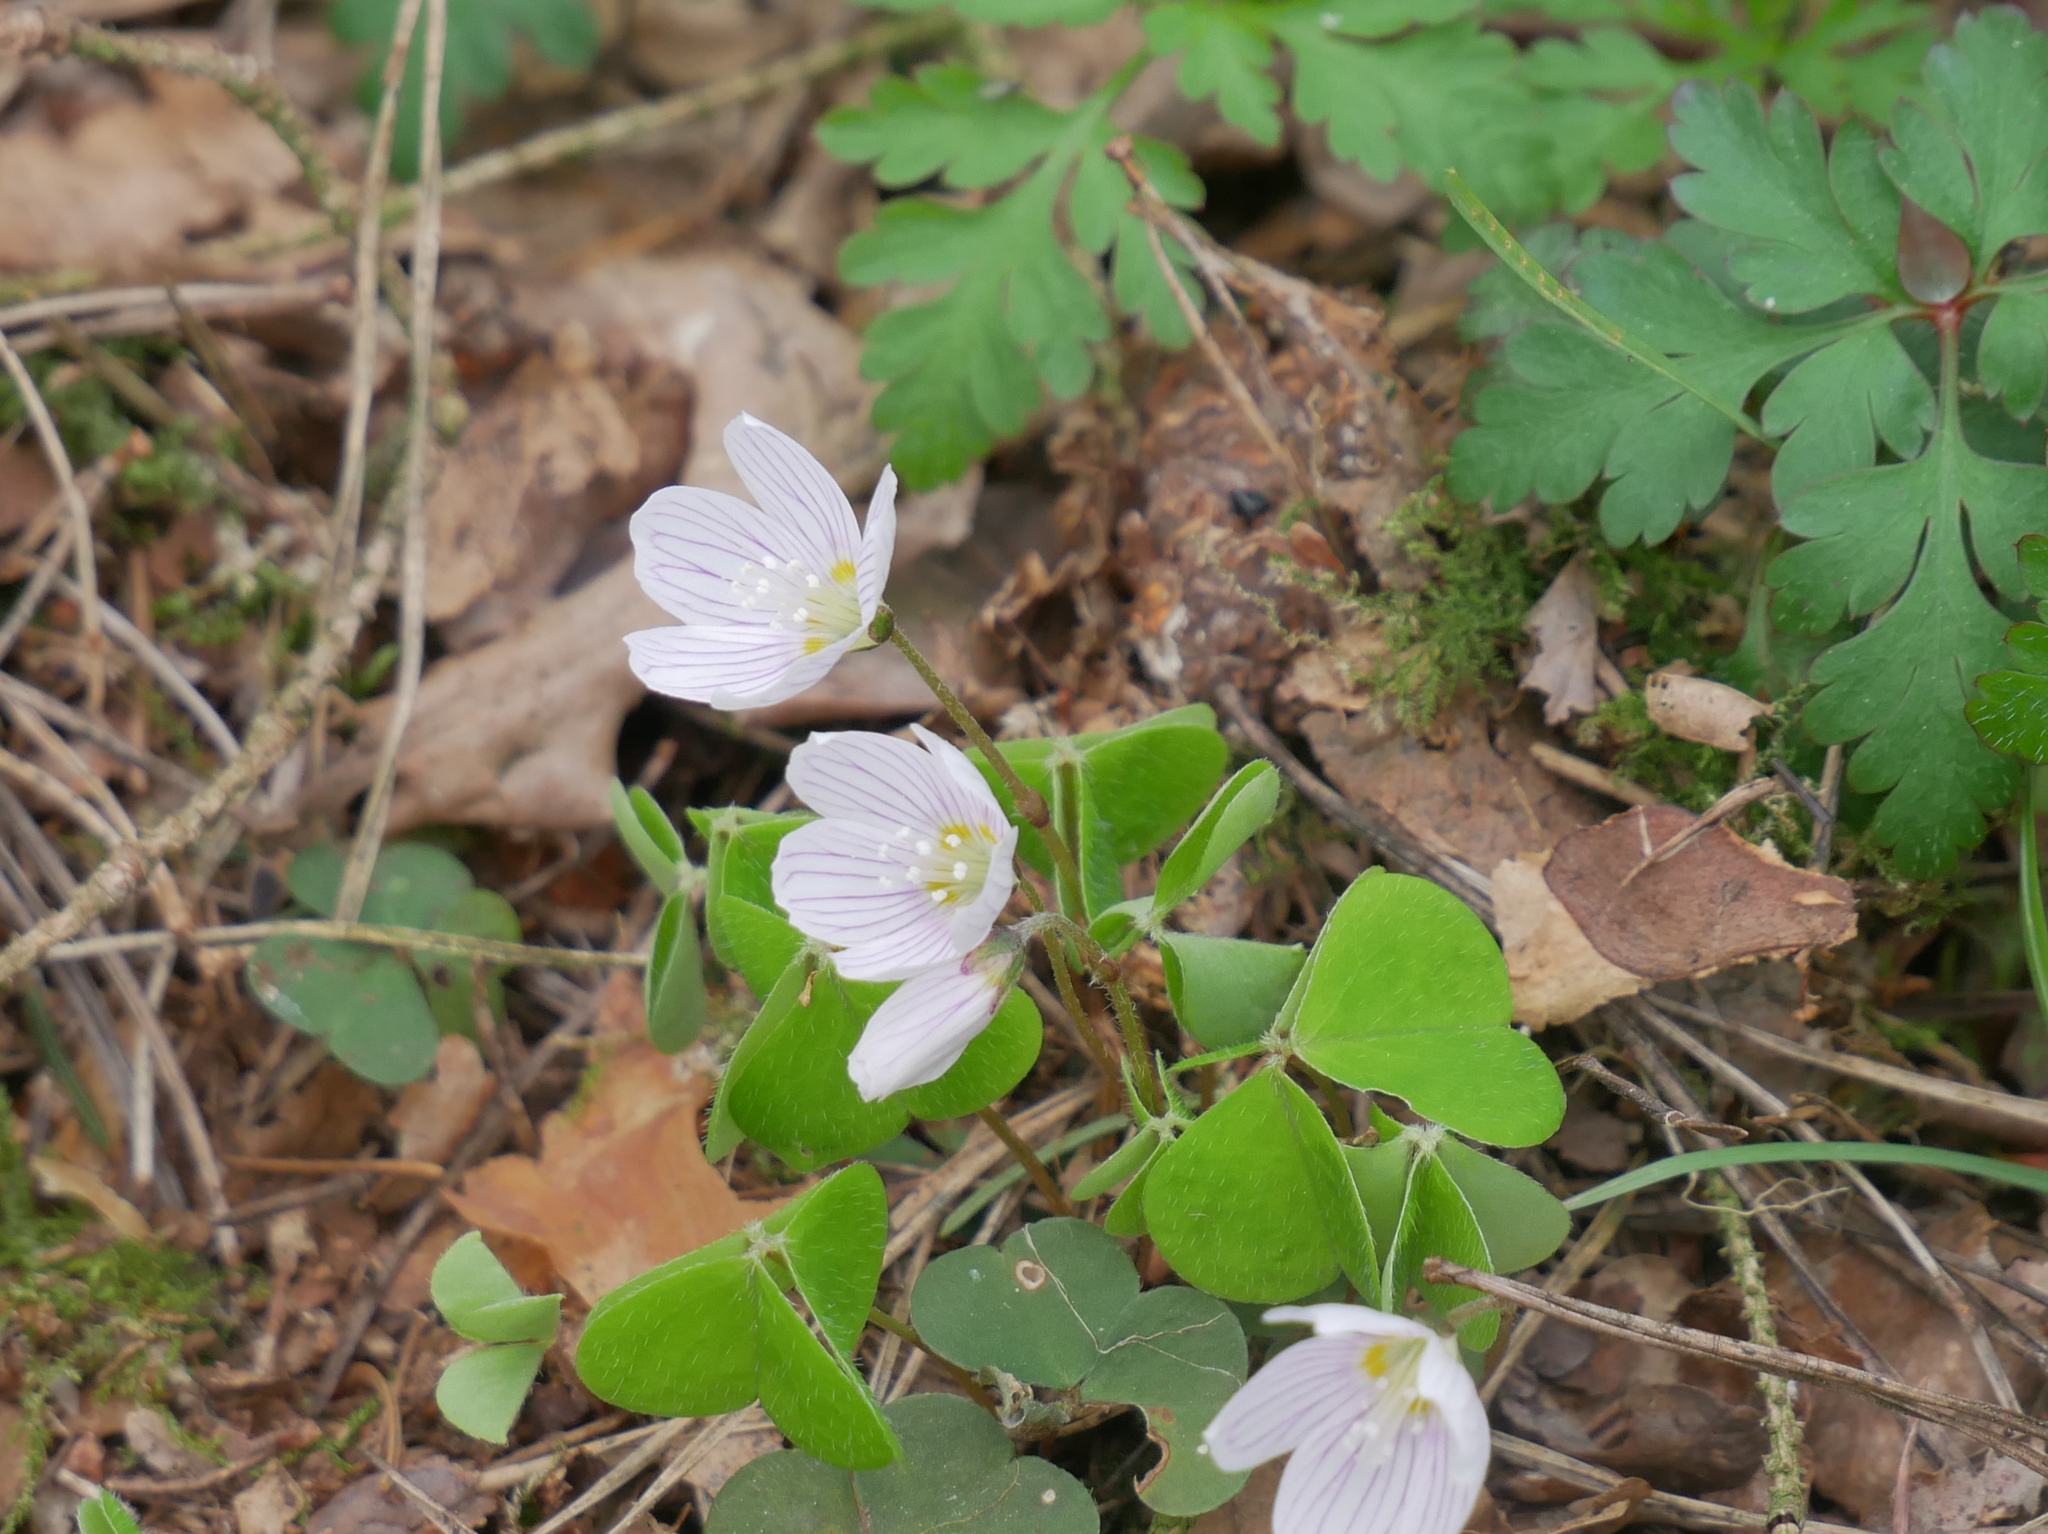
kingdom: Plantae
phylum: Tracheophyta
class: Magnoliopsida
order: Oxalidales
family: Oxalidaceae
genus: Oxalis
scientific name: Oxalis acetosella
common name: Wood-sorrel
